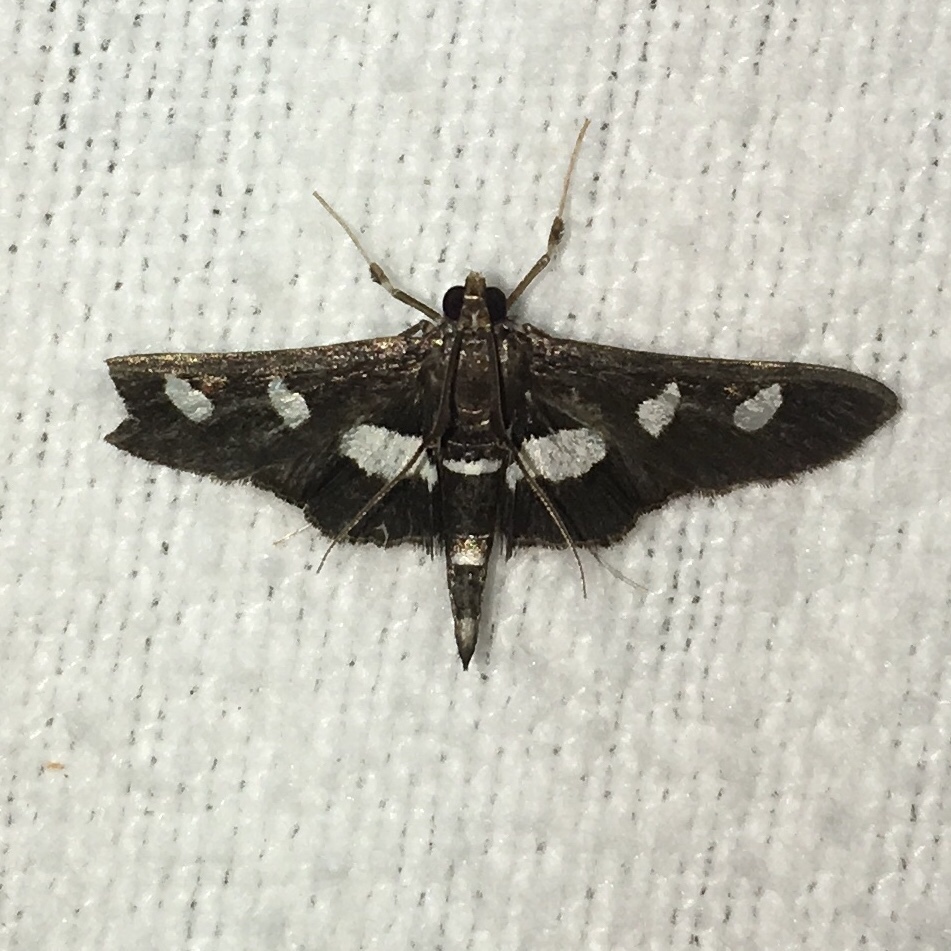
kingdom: Animalia
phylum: Arthropoda
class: Insecta
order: Lepidoptera
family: Crambidae
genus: Desmia
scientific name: Desmia
